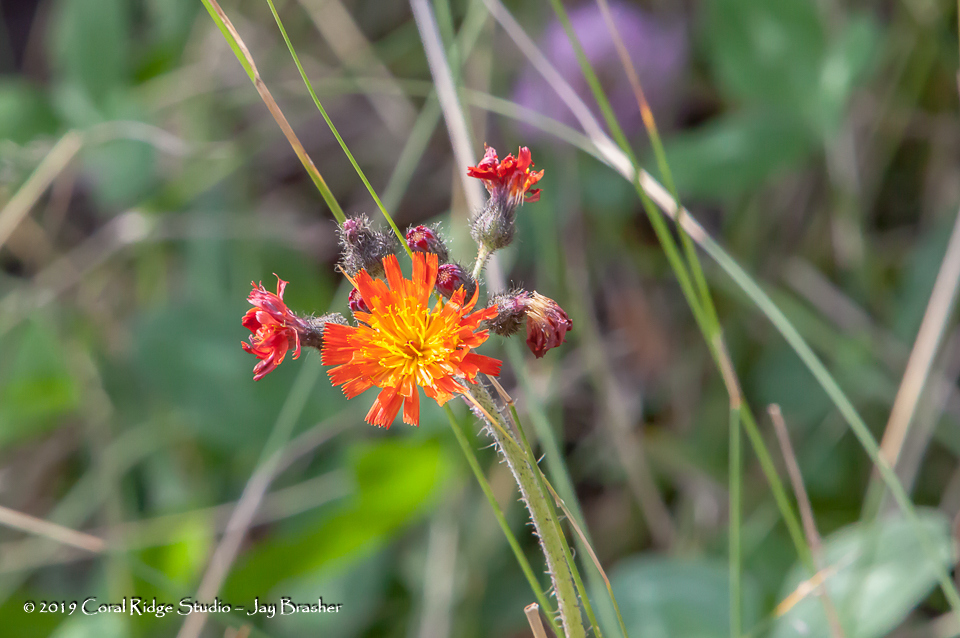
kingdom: Plantae
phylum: Tracheophyta
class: Magnoliopsida
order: Asterales
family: Asteraceae
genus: Pilosella
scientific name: Pilosella aurantiaca
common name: Fox-and-cubs
